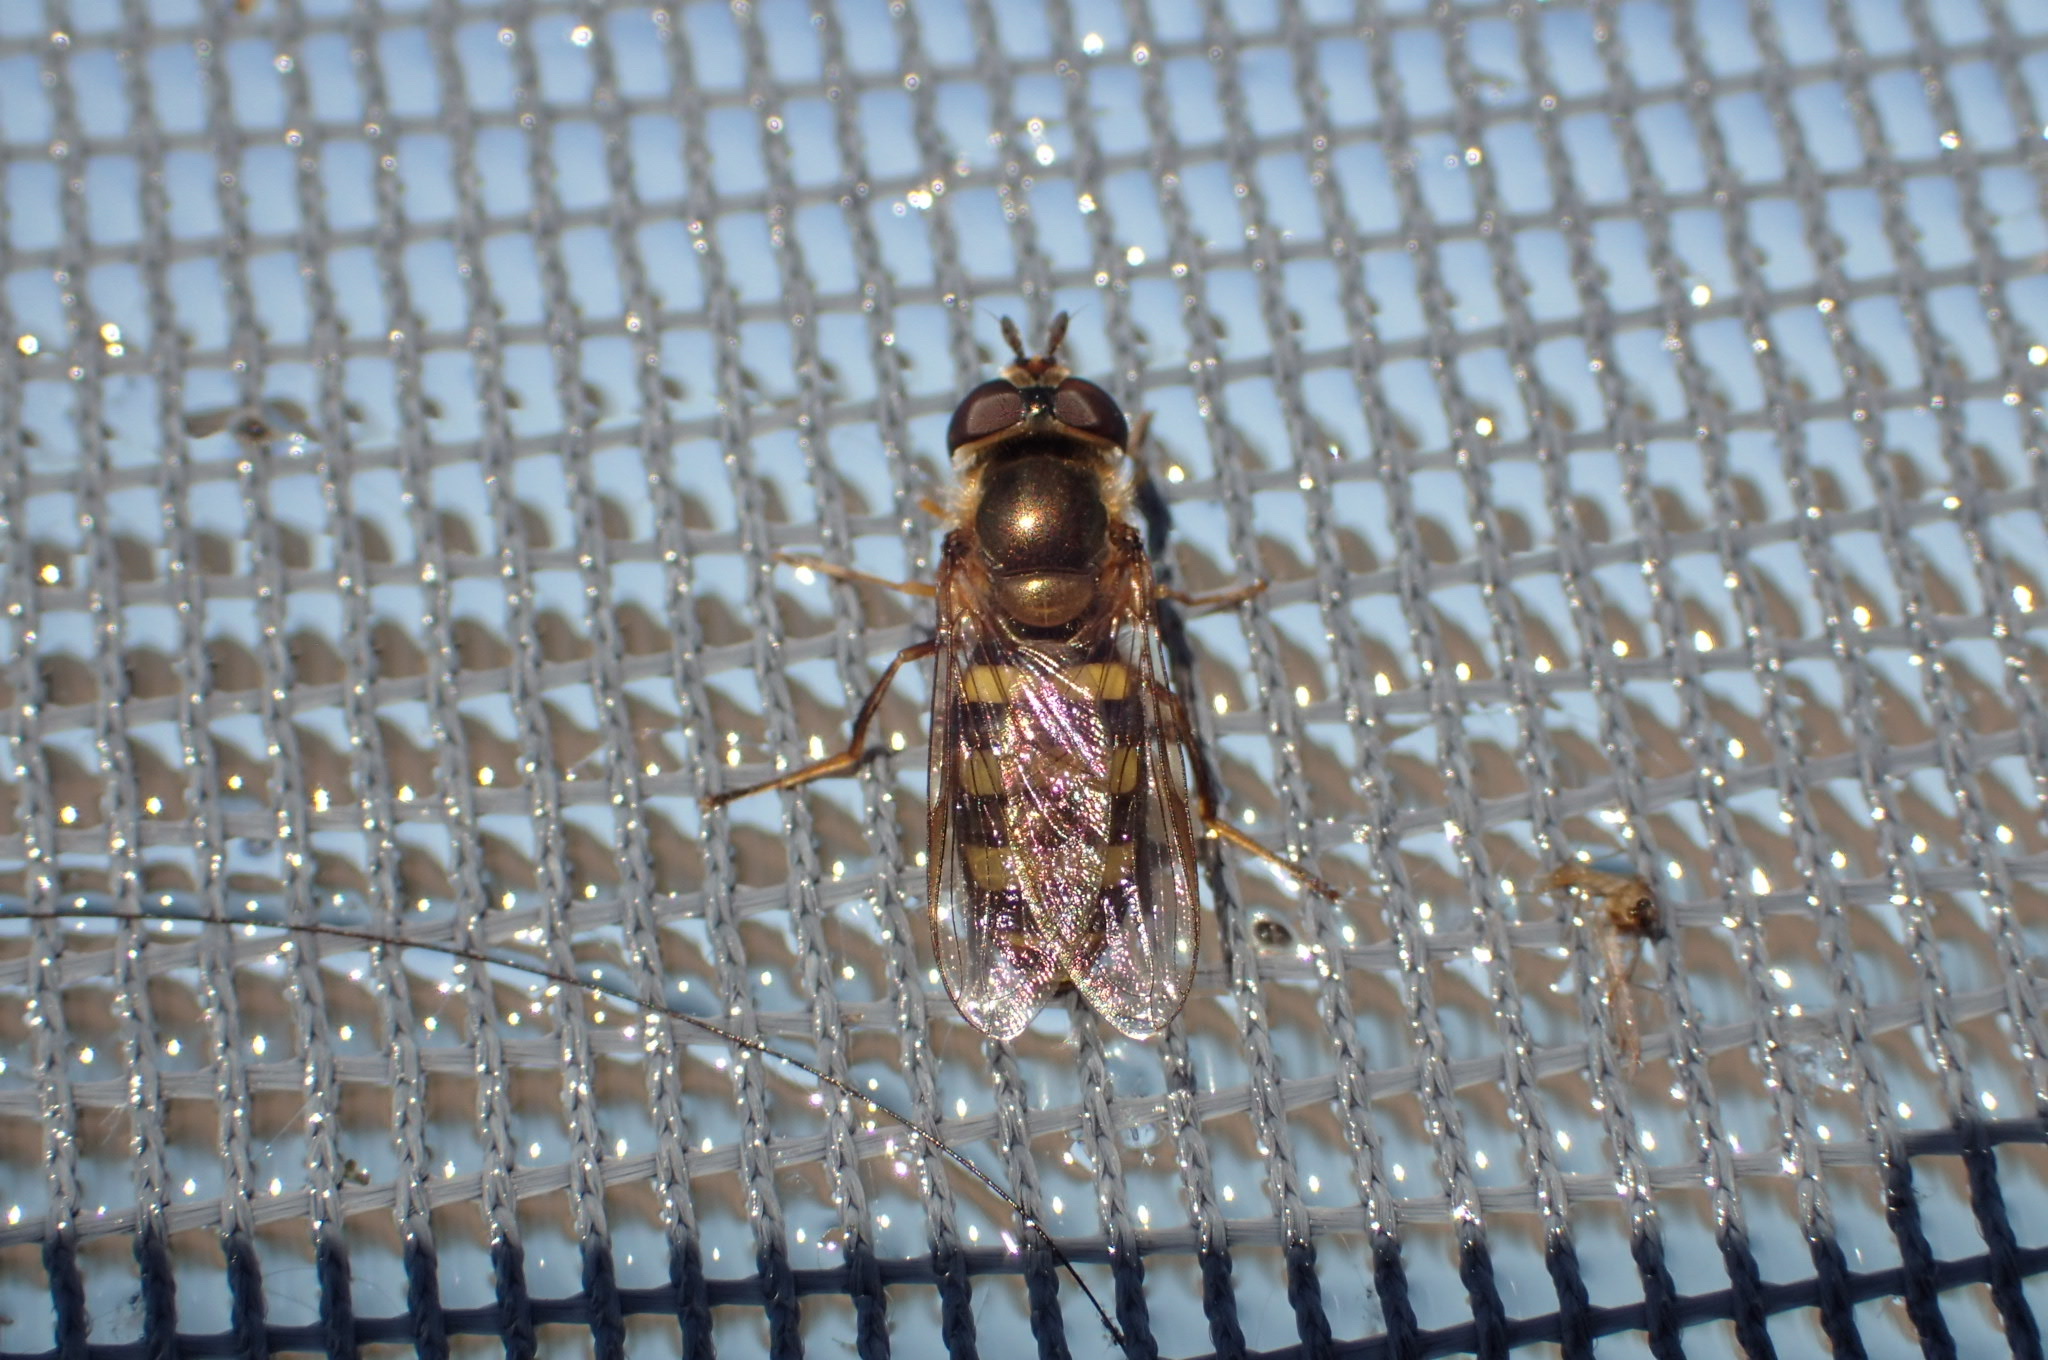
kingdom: Animalia
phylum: Arthropoda
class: Insecta
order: Diptera
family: Syrphidae
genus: Eupeodes
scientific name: Eupeodes
